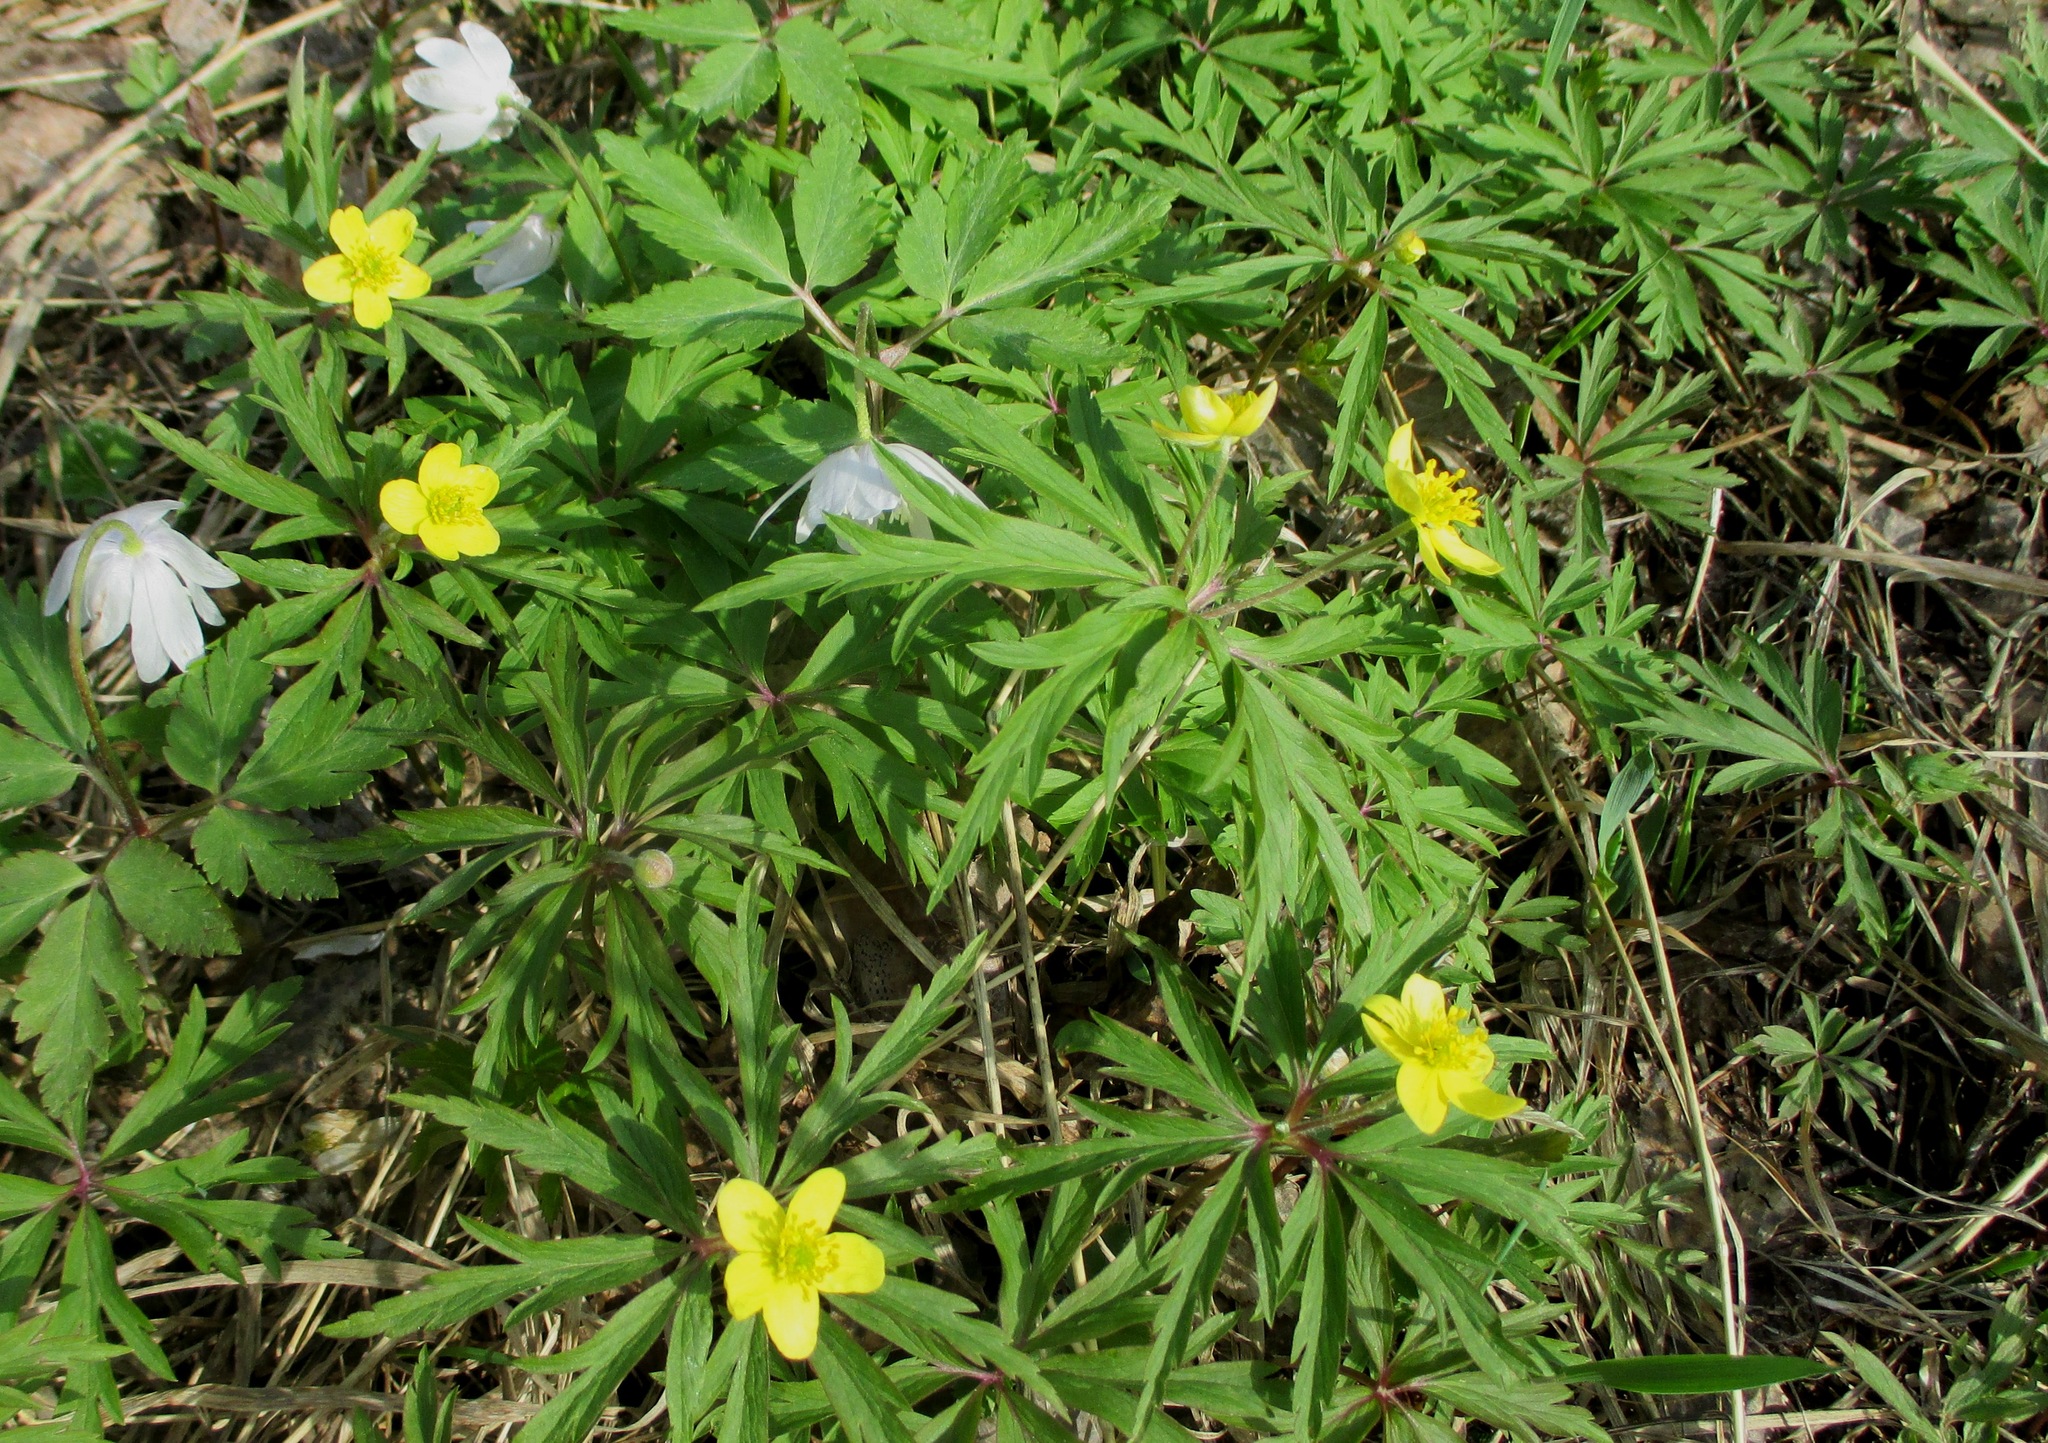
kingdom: Plantae
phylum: Tracheophyta
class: Magnoliopsida
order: Ranunculales
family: Ranunculaceae
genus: Anemone
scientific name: Anemone ranunculoides
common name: Yellow anemone
